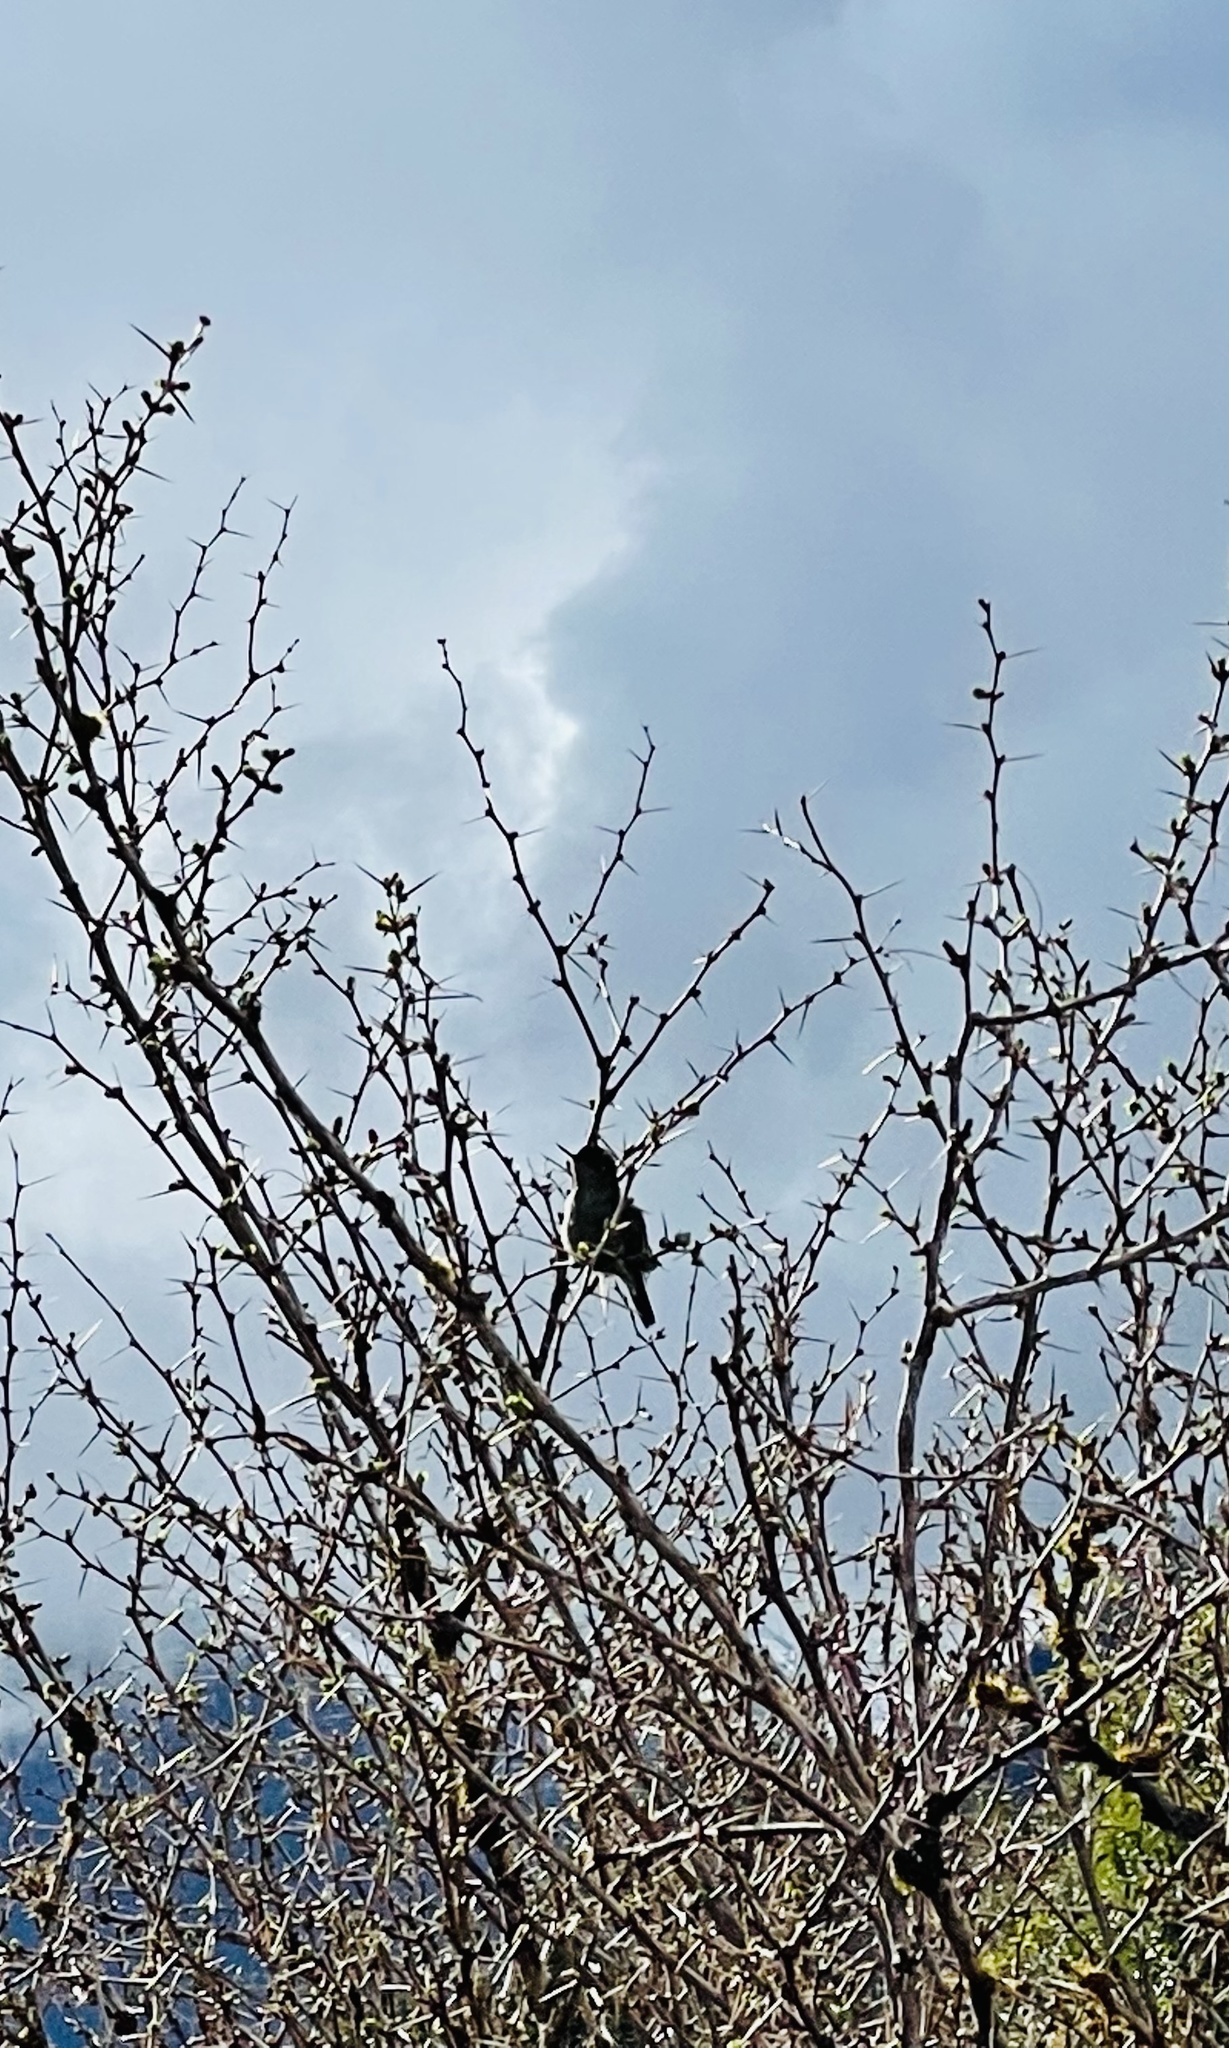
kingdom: Animalia
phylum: Chordata
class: Aves
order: Apodiformes
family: Trochilidae
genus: Sephanoides
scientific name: Sephanoides sephaniodes
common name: Green-backed firecrown
